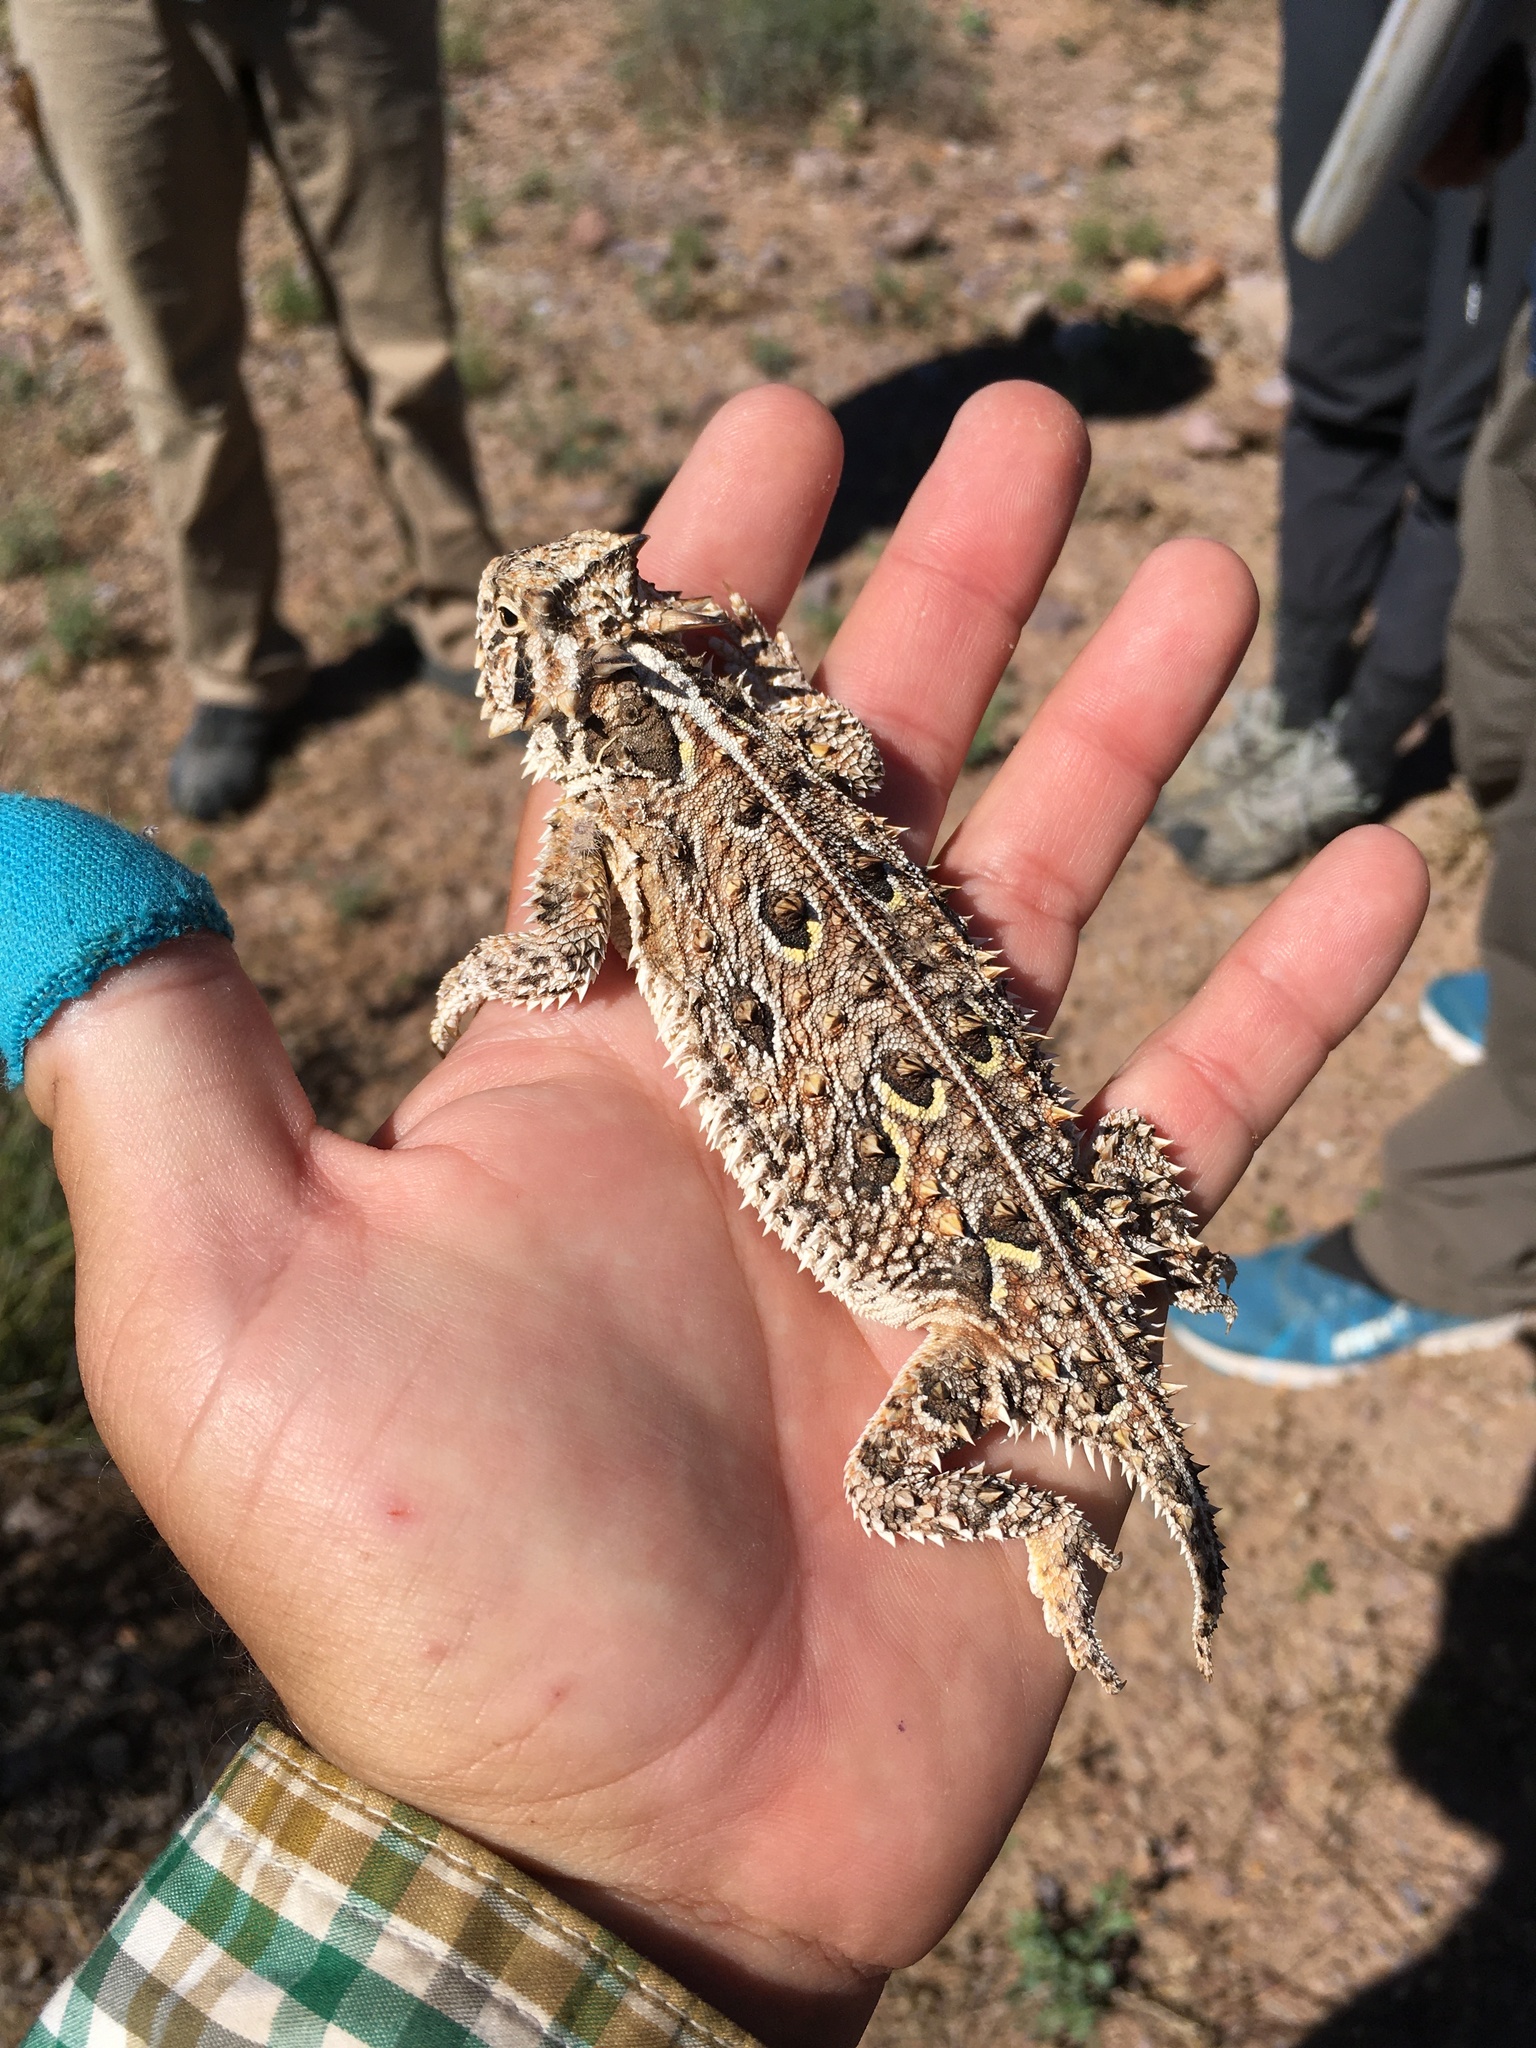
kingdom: Animalia
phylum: Chordata
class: Squamata
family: Phrynosomatidae
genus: Phrynosoma
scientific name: Phrynosoma cornutum
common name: Texas horned lizard
